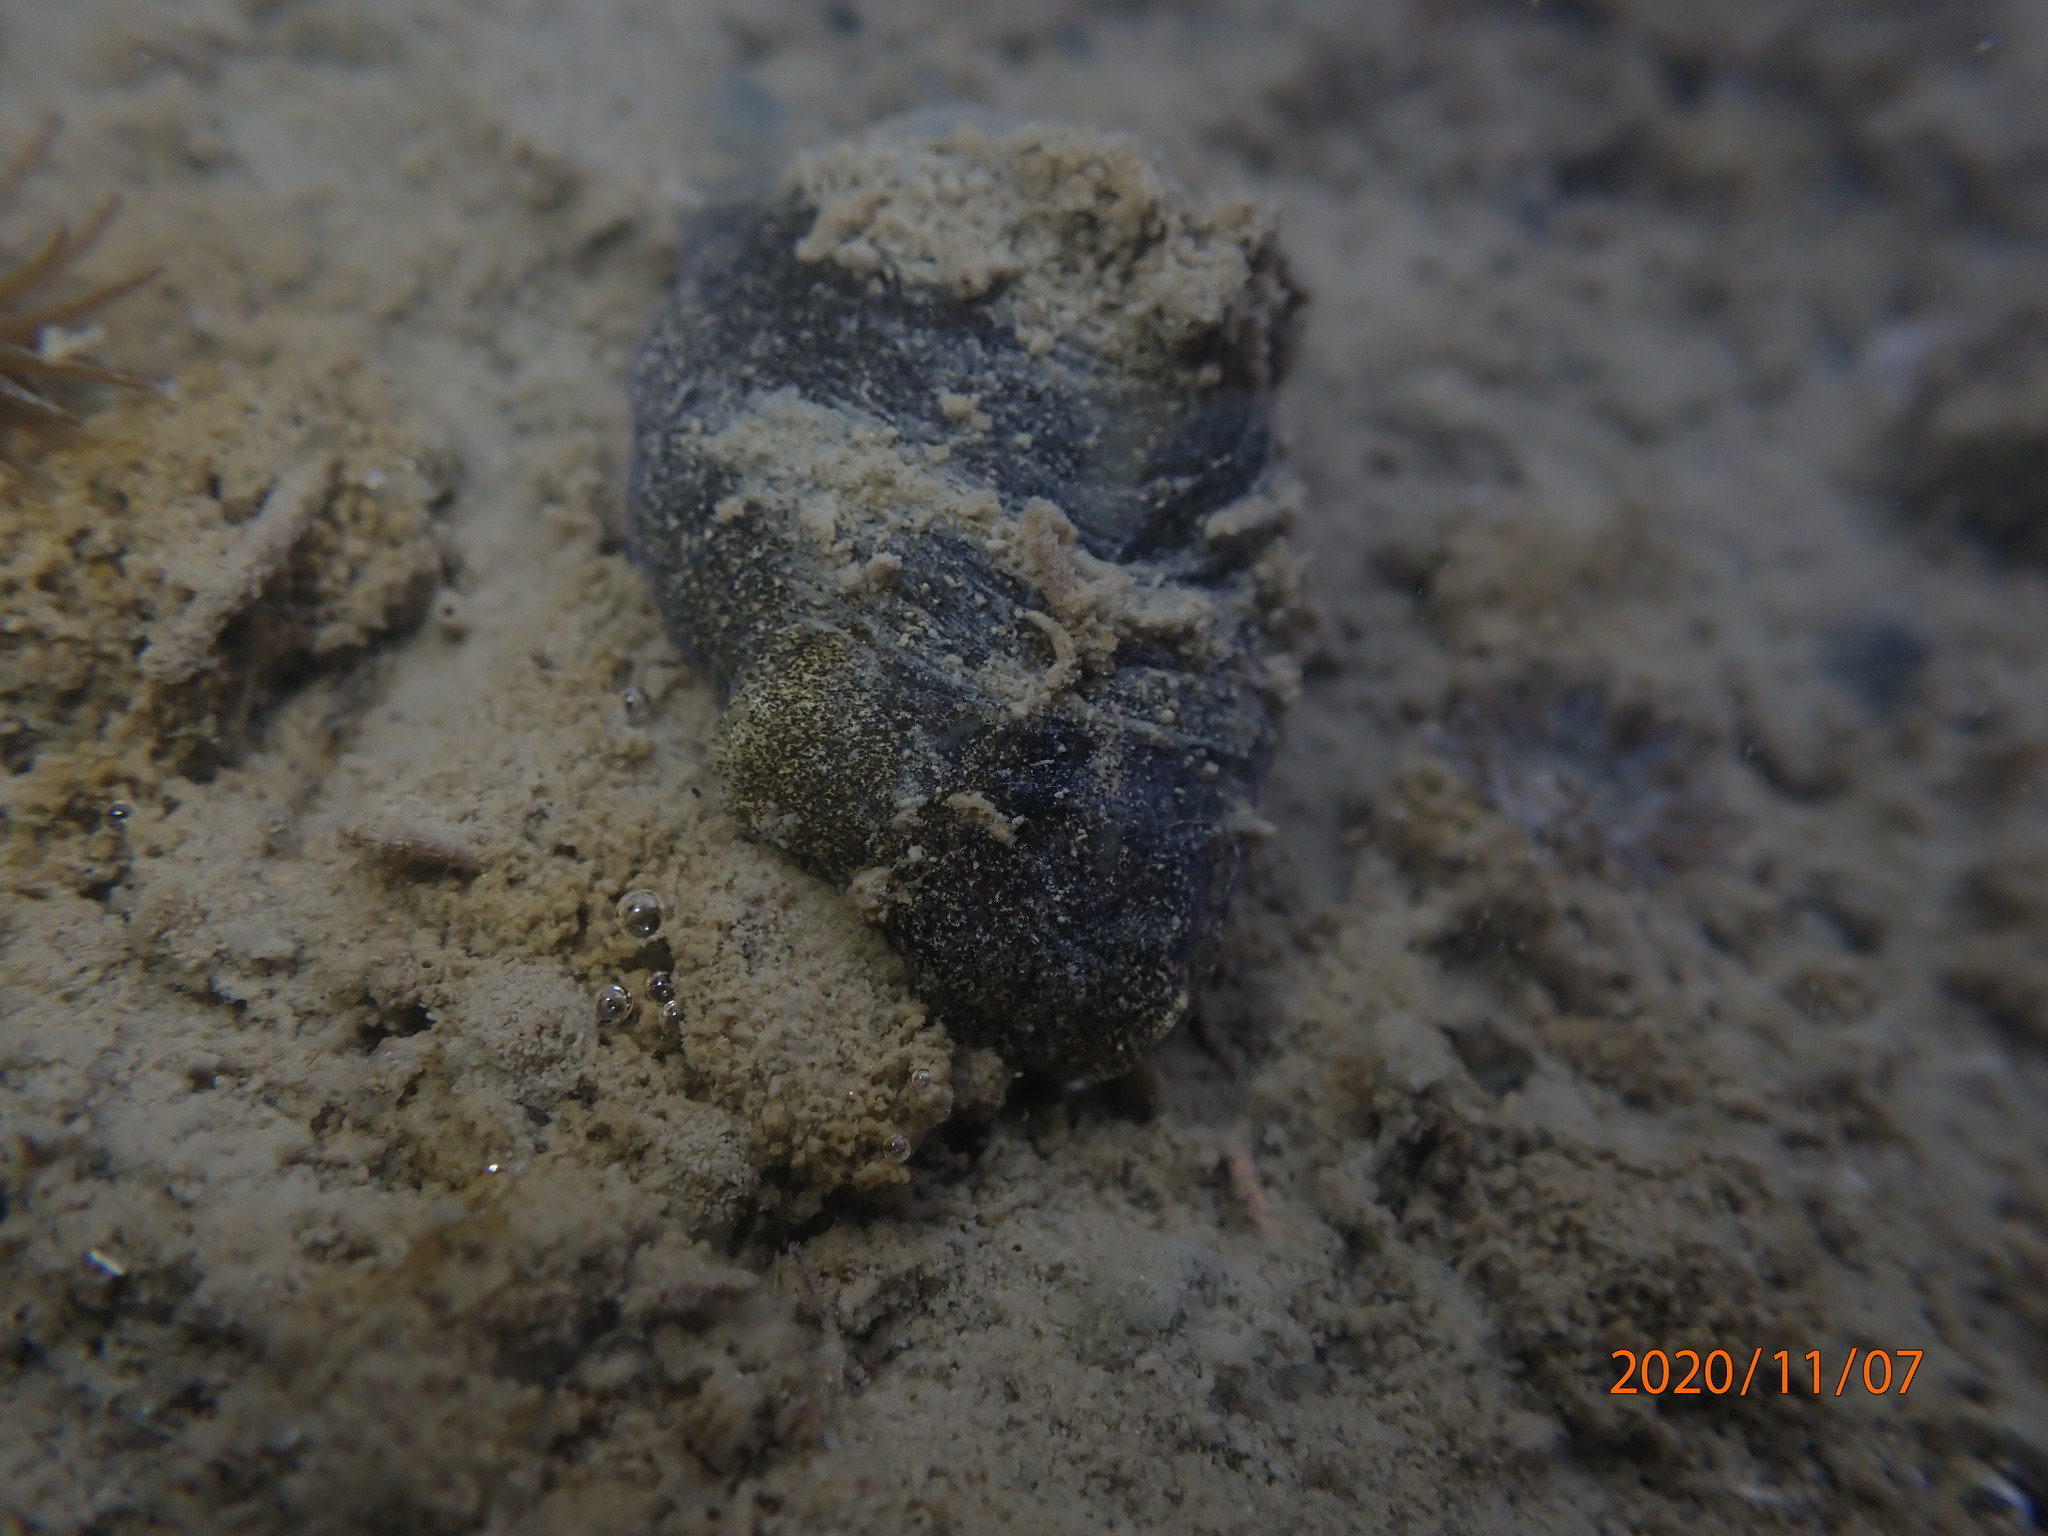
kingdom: Animalia
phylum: Mollusca
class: Gastropoda
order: Cephalaspidea
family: Haminoeidae
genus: Papawera
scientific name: Papawera zelandiae
